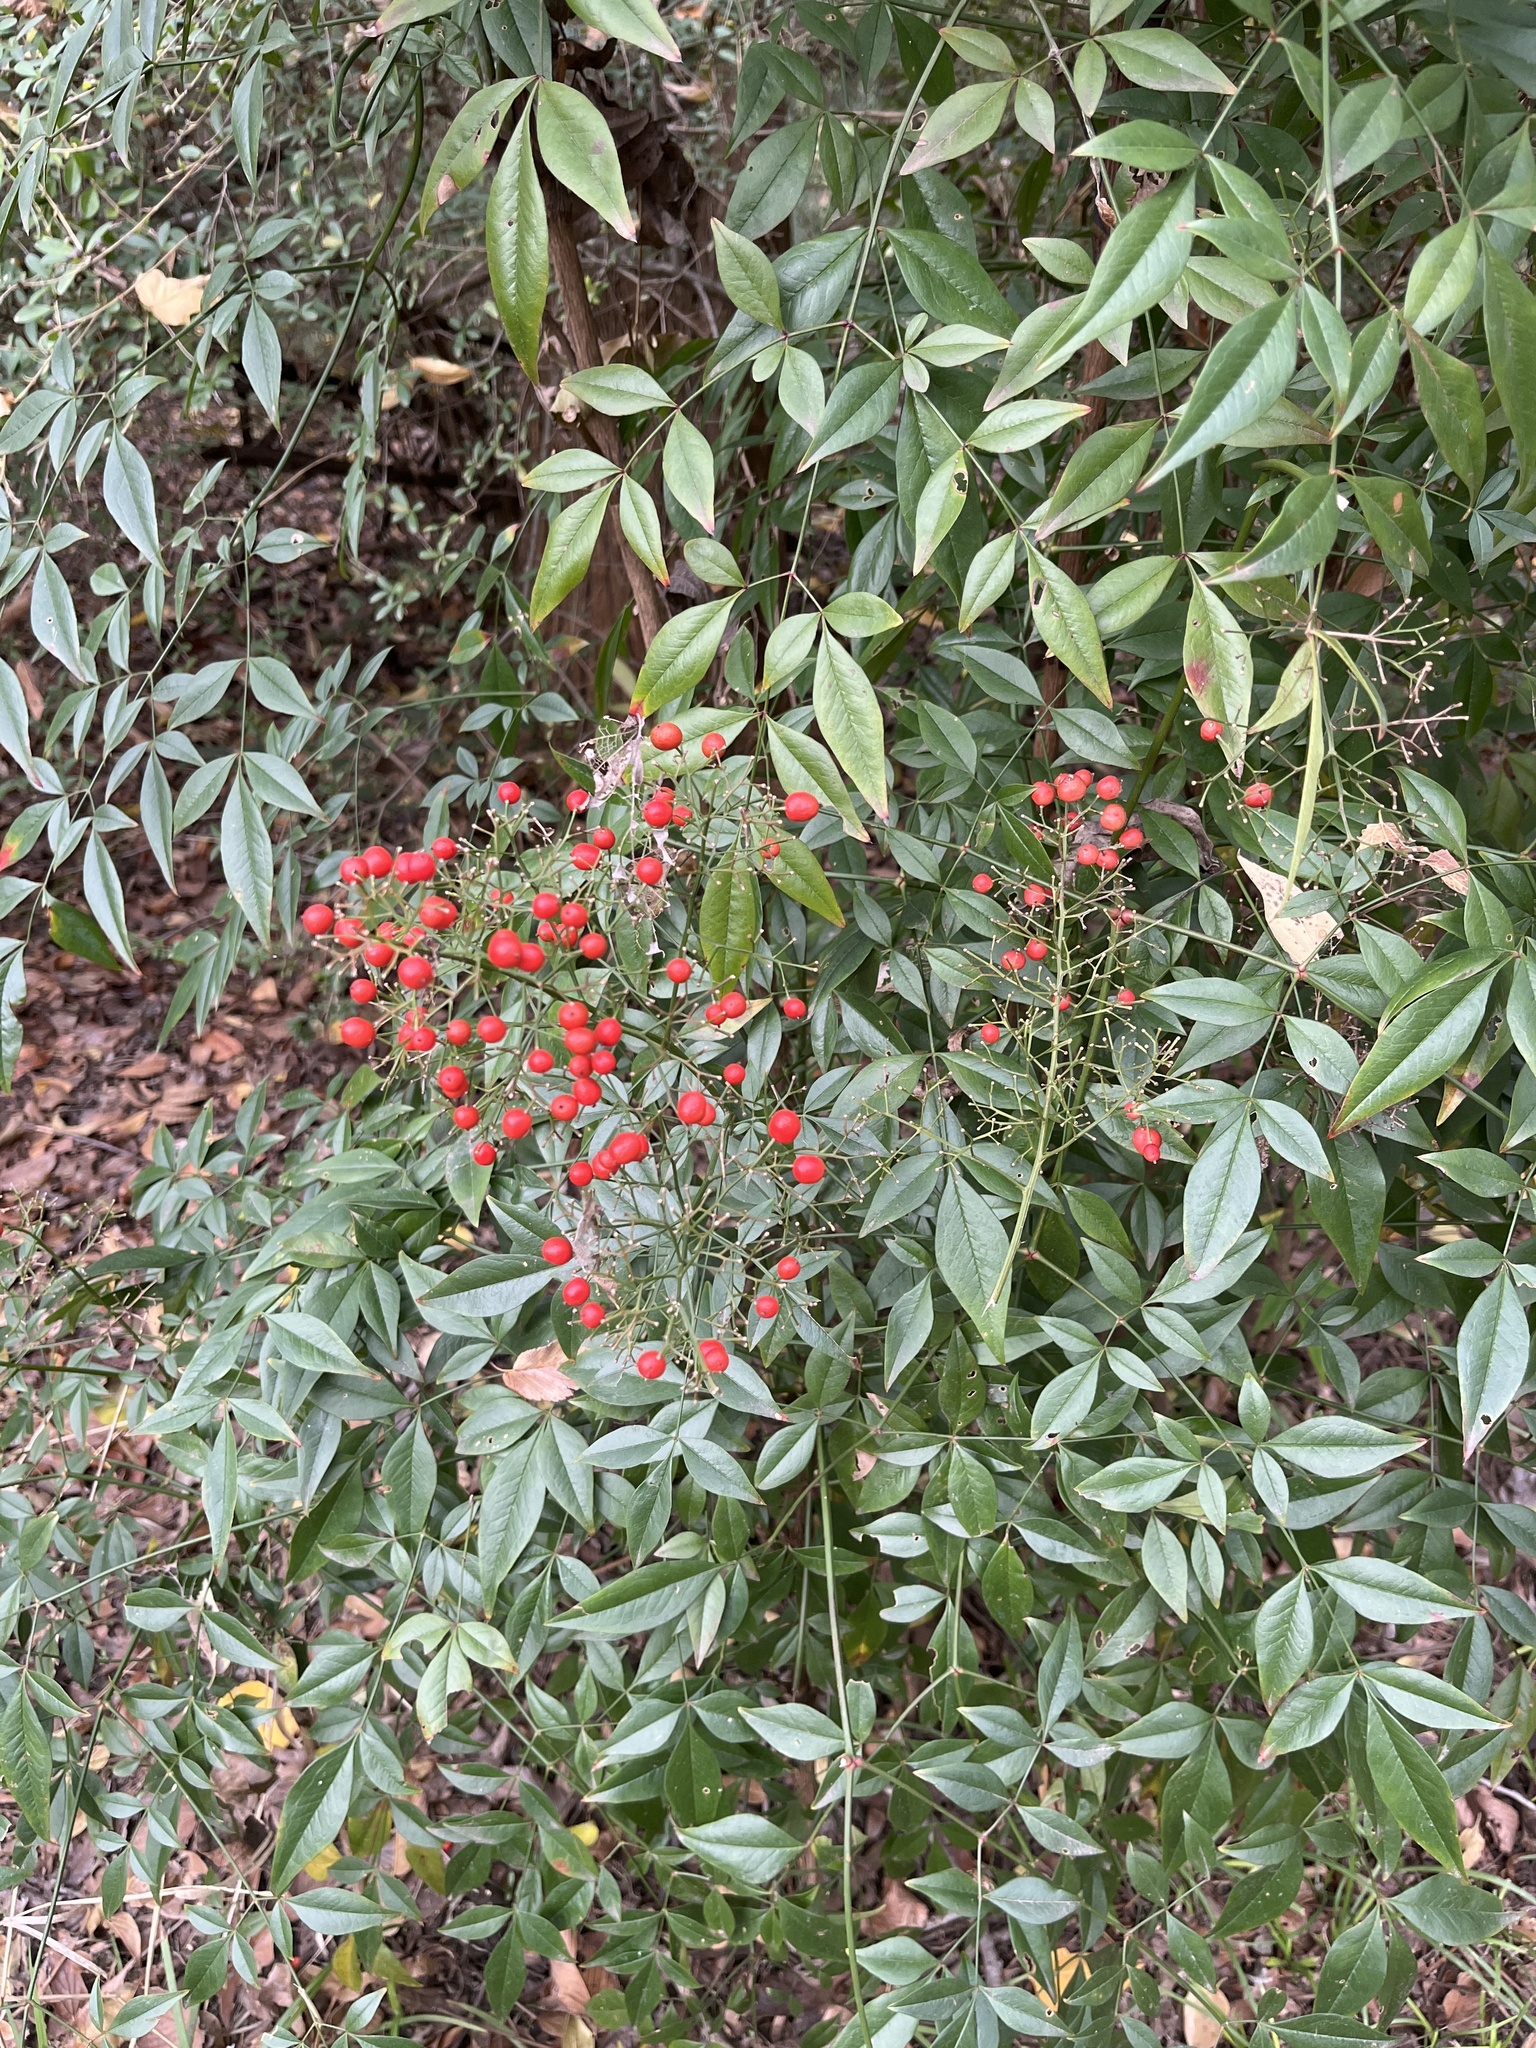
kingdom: Plantae
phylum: Tracheophyta
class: Magnoliopsida
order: Ranunculales
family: Berberidaceae
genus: Nandina
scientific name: Nandina domestica
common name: Sacred bamboo
